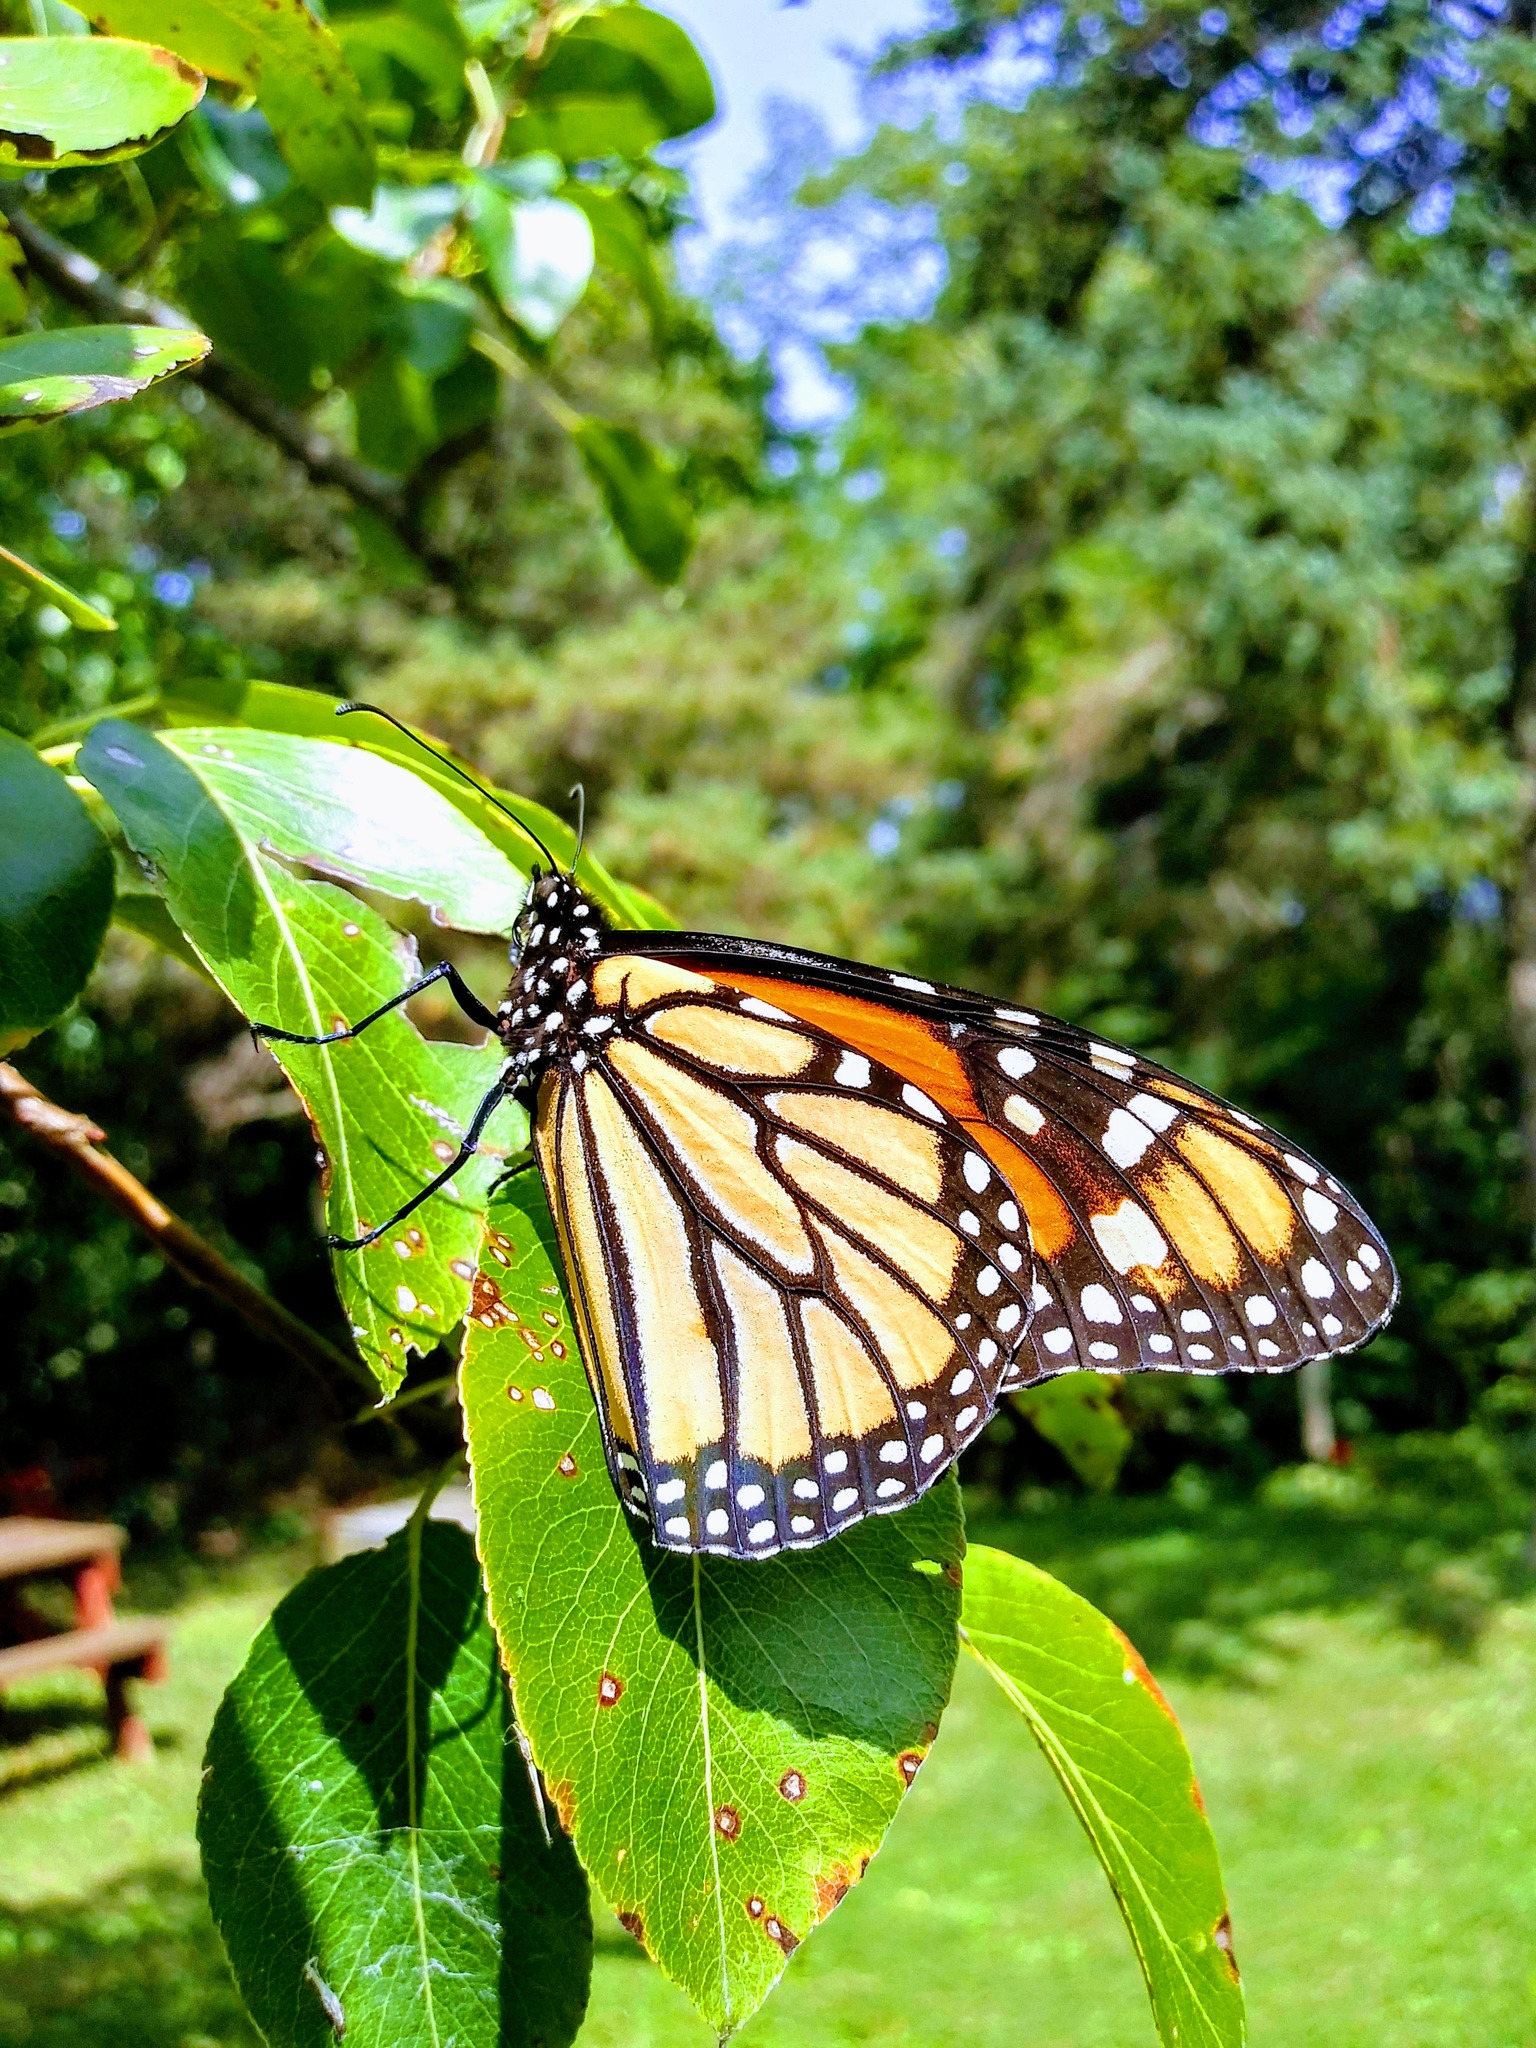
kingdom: Animalia
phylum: Arthropoda
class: Insecta
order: Lepidoptera
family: Nymphalidae
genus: Danaus
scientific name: Danaus plexippus
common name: Monarch
